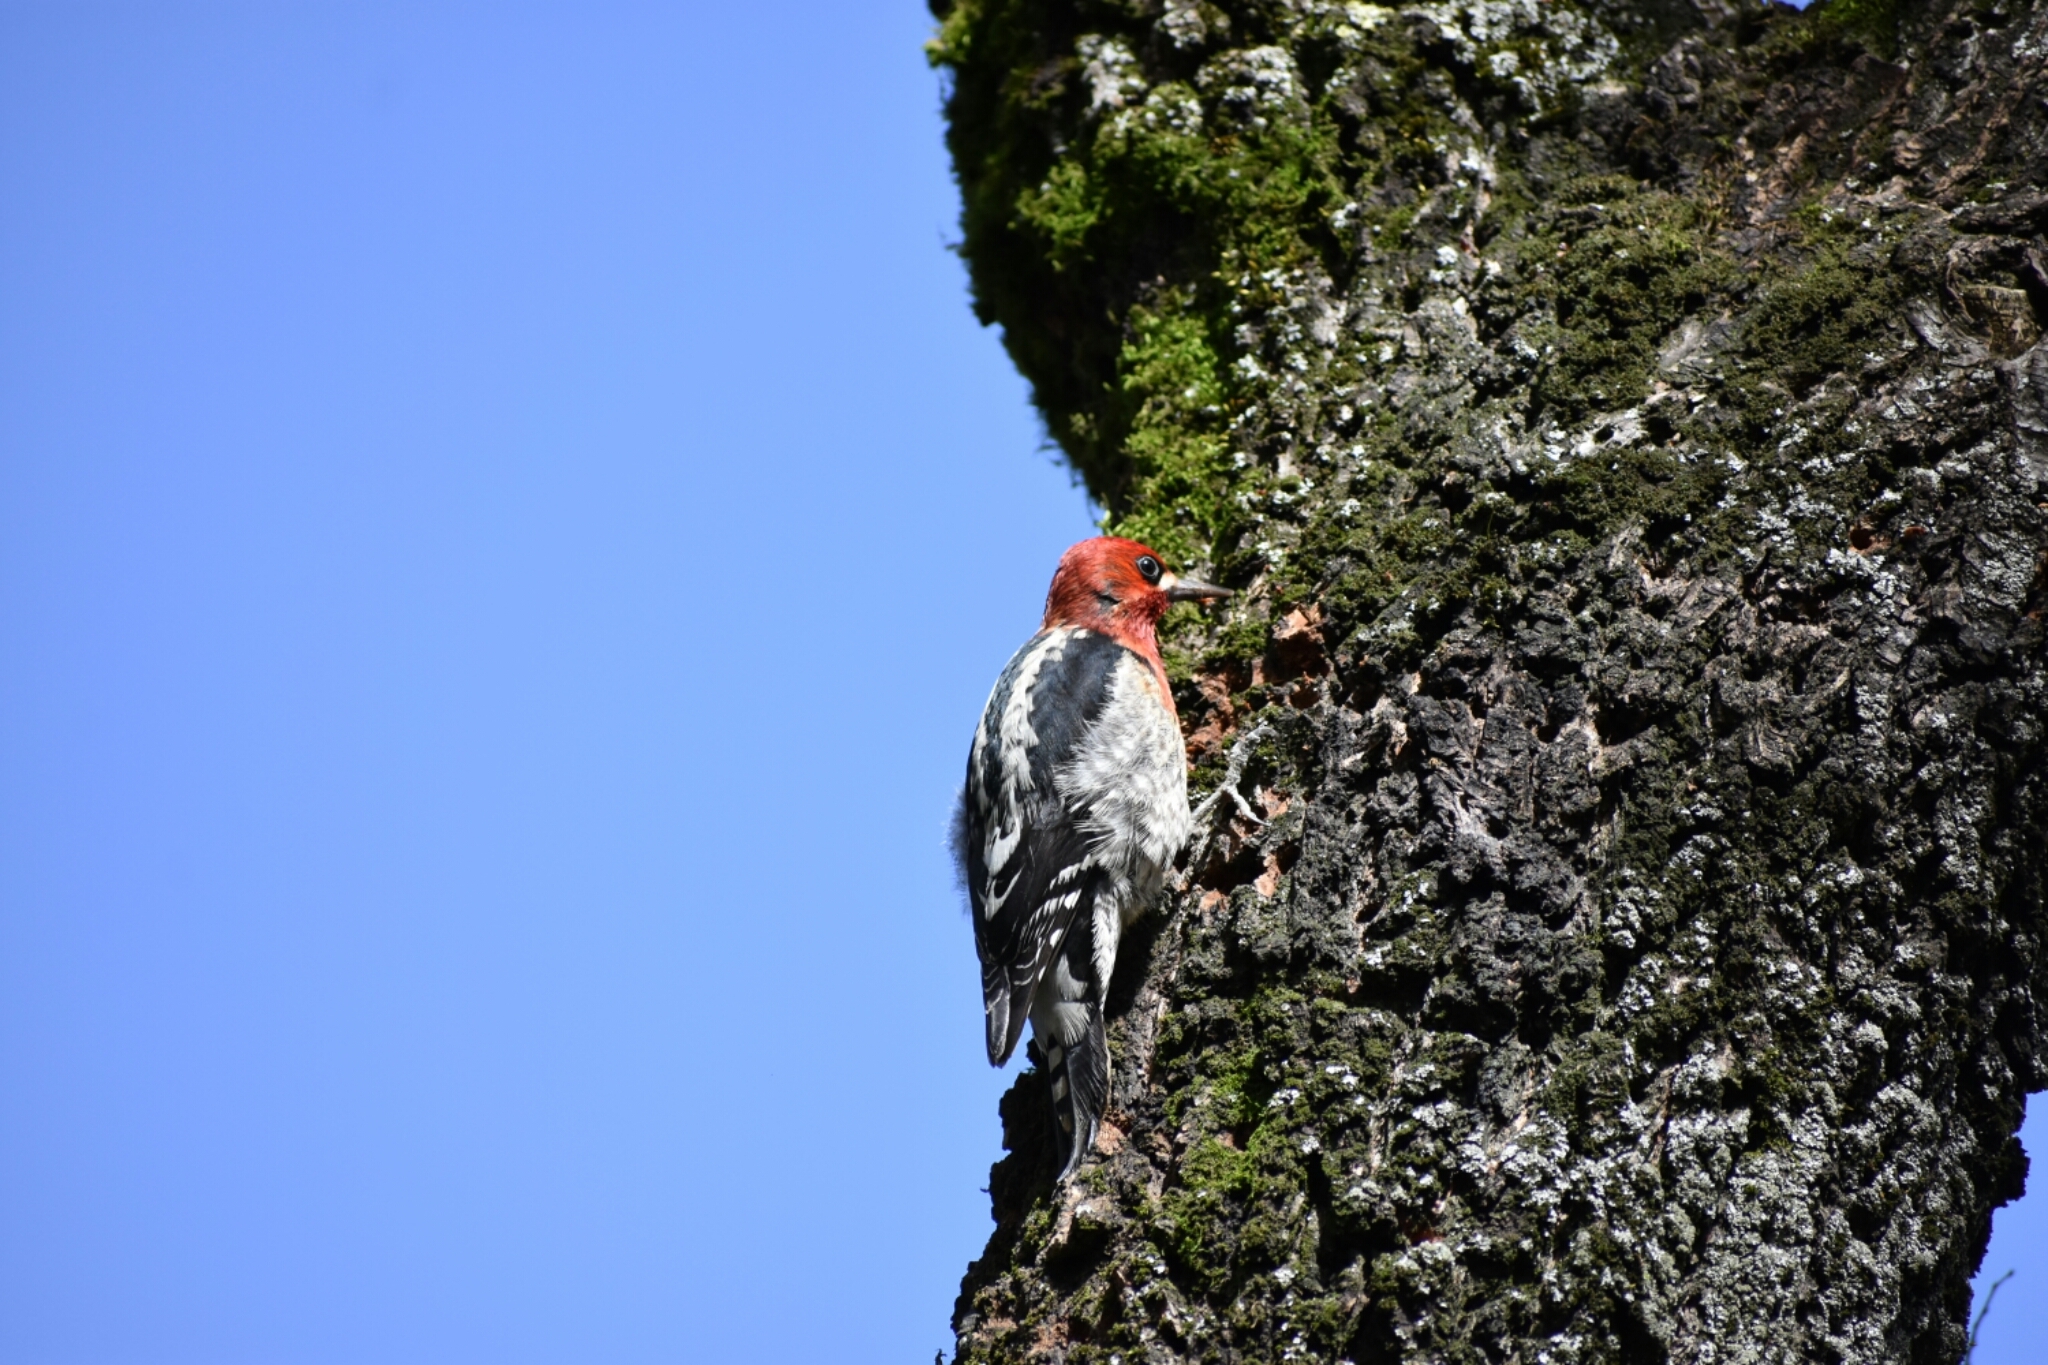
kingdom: Animalia
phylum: Chordata
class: Aves
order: Piciformes
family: Picidae
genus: Sphyrapicus
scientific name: Sphyrapicus ruber
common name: Red-breasted sapsucker
